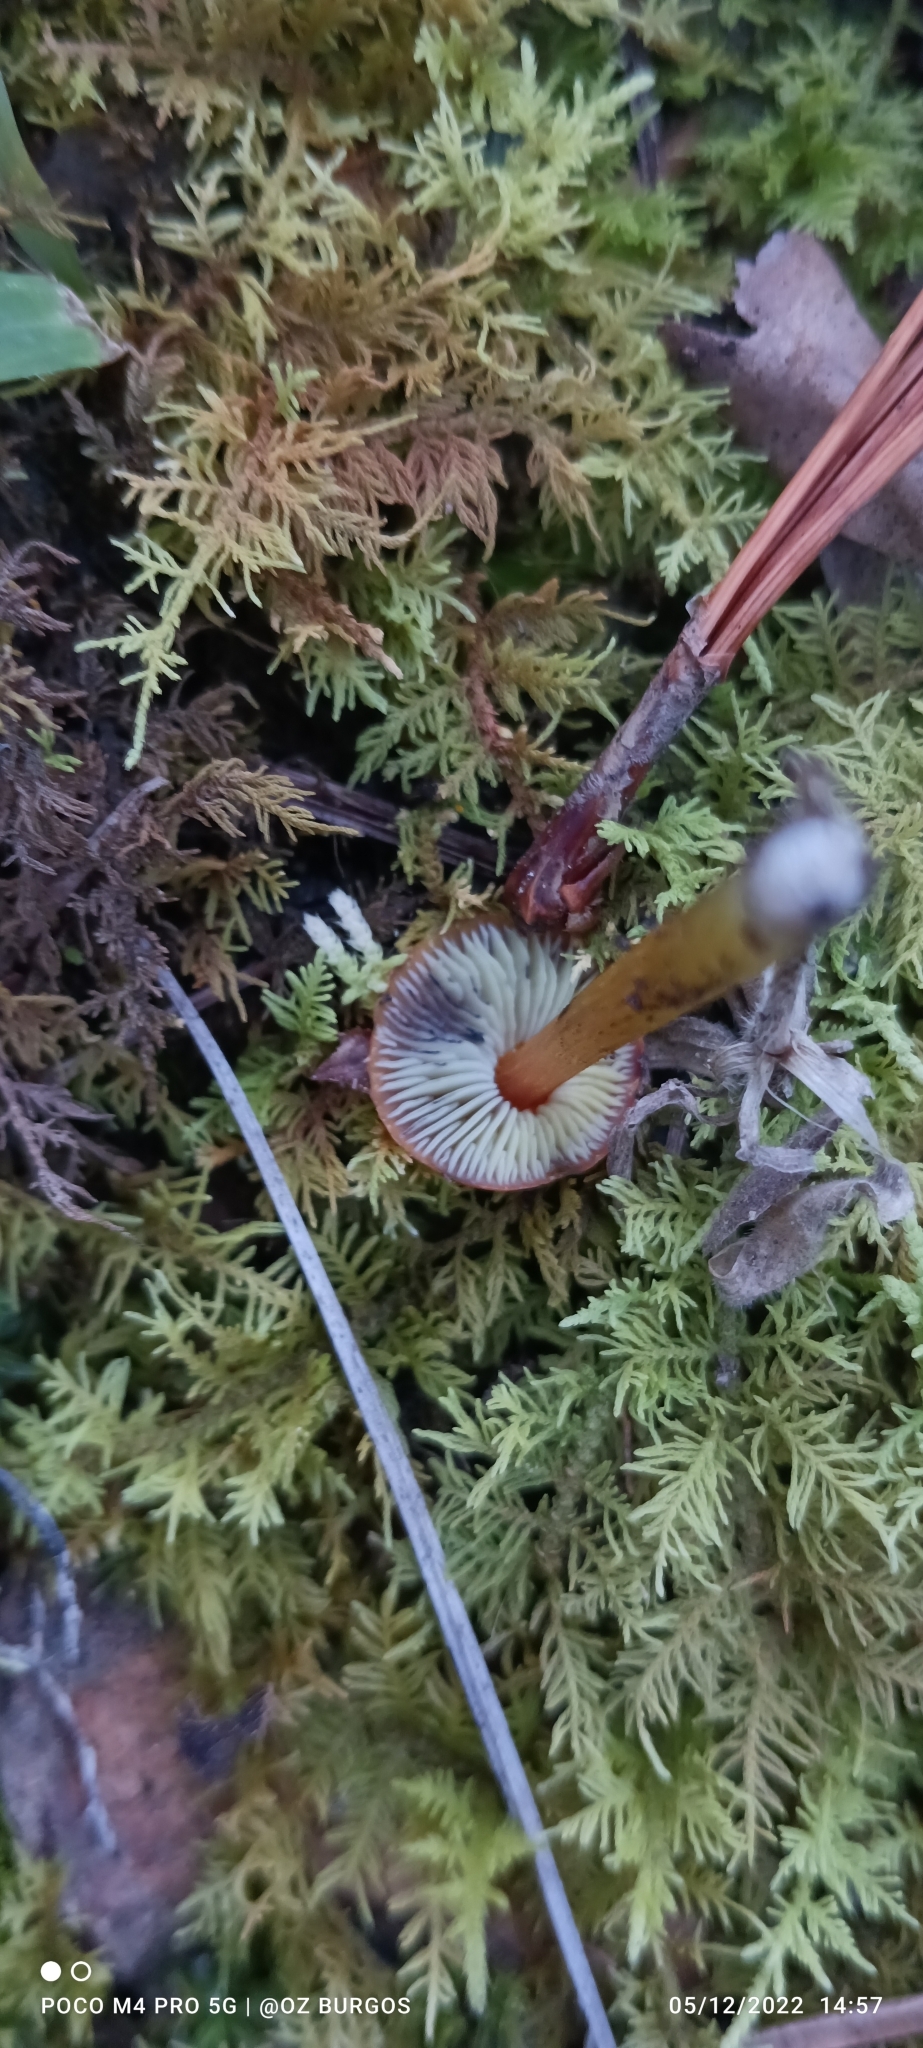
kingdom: Fungi
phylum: Basidiomycota
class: Agaricomycetes
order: Agaricales
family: Hygrophoraceae
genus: Hygrocybe
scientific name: Hygrocybe conica
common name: Blackening wax-cap
